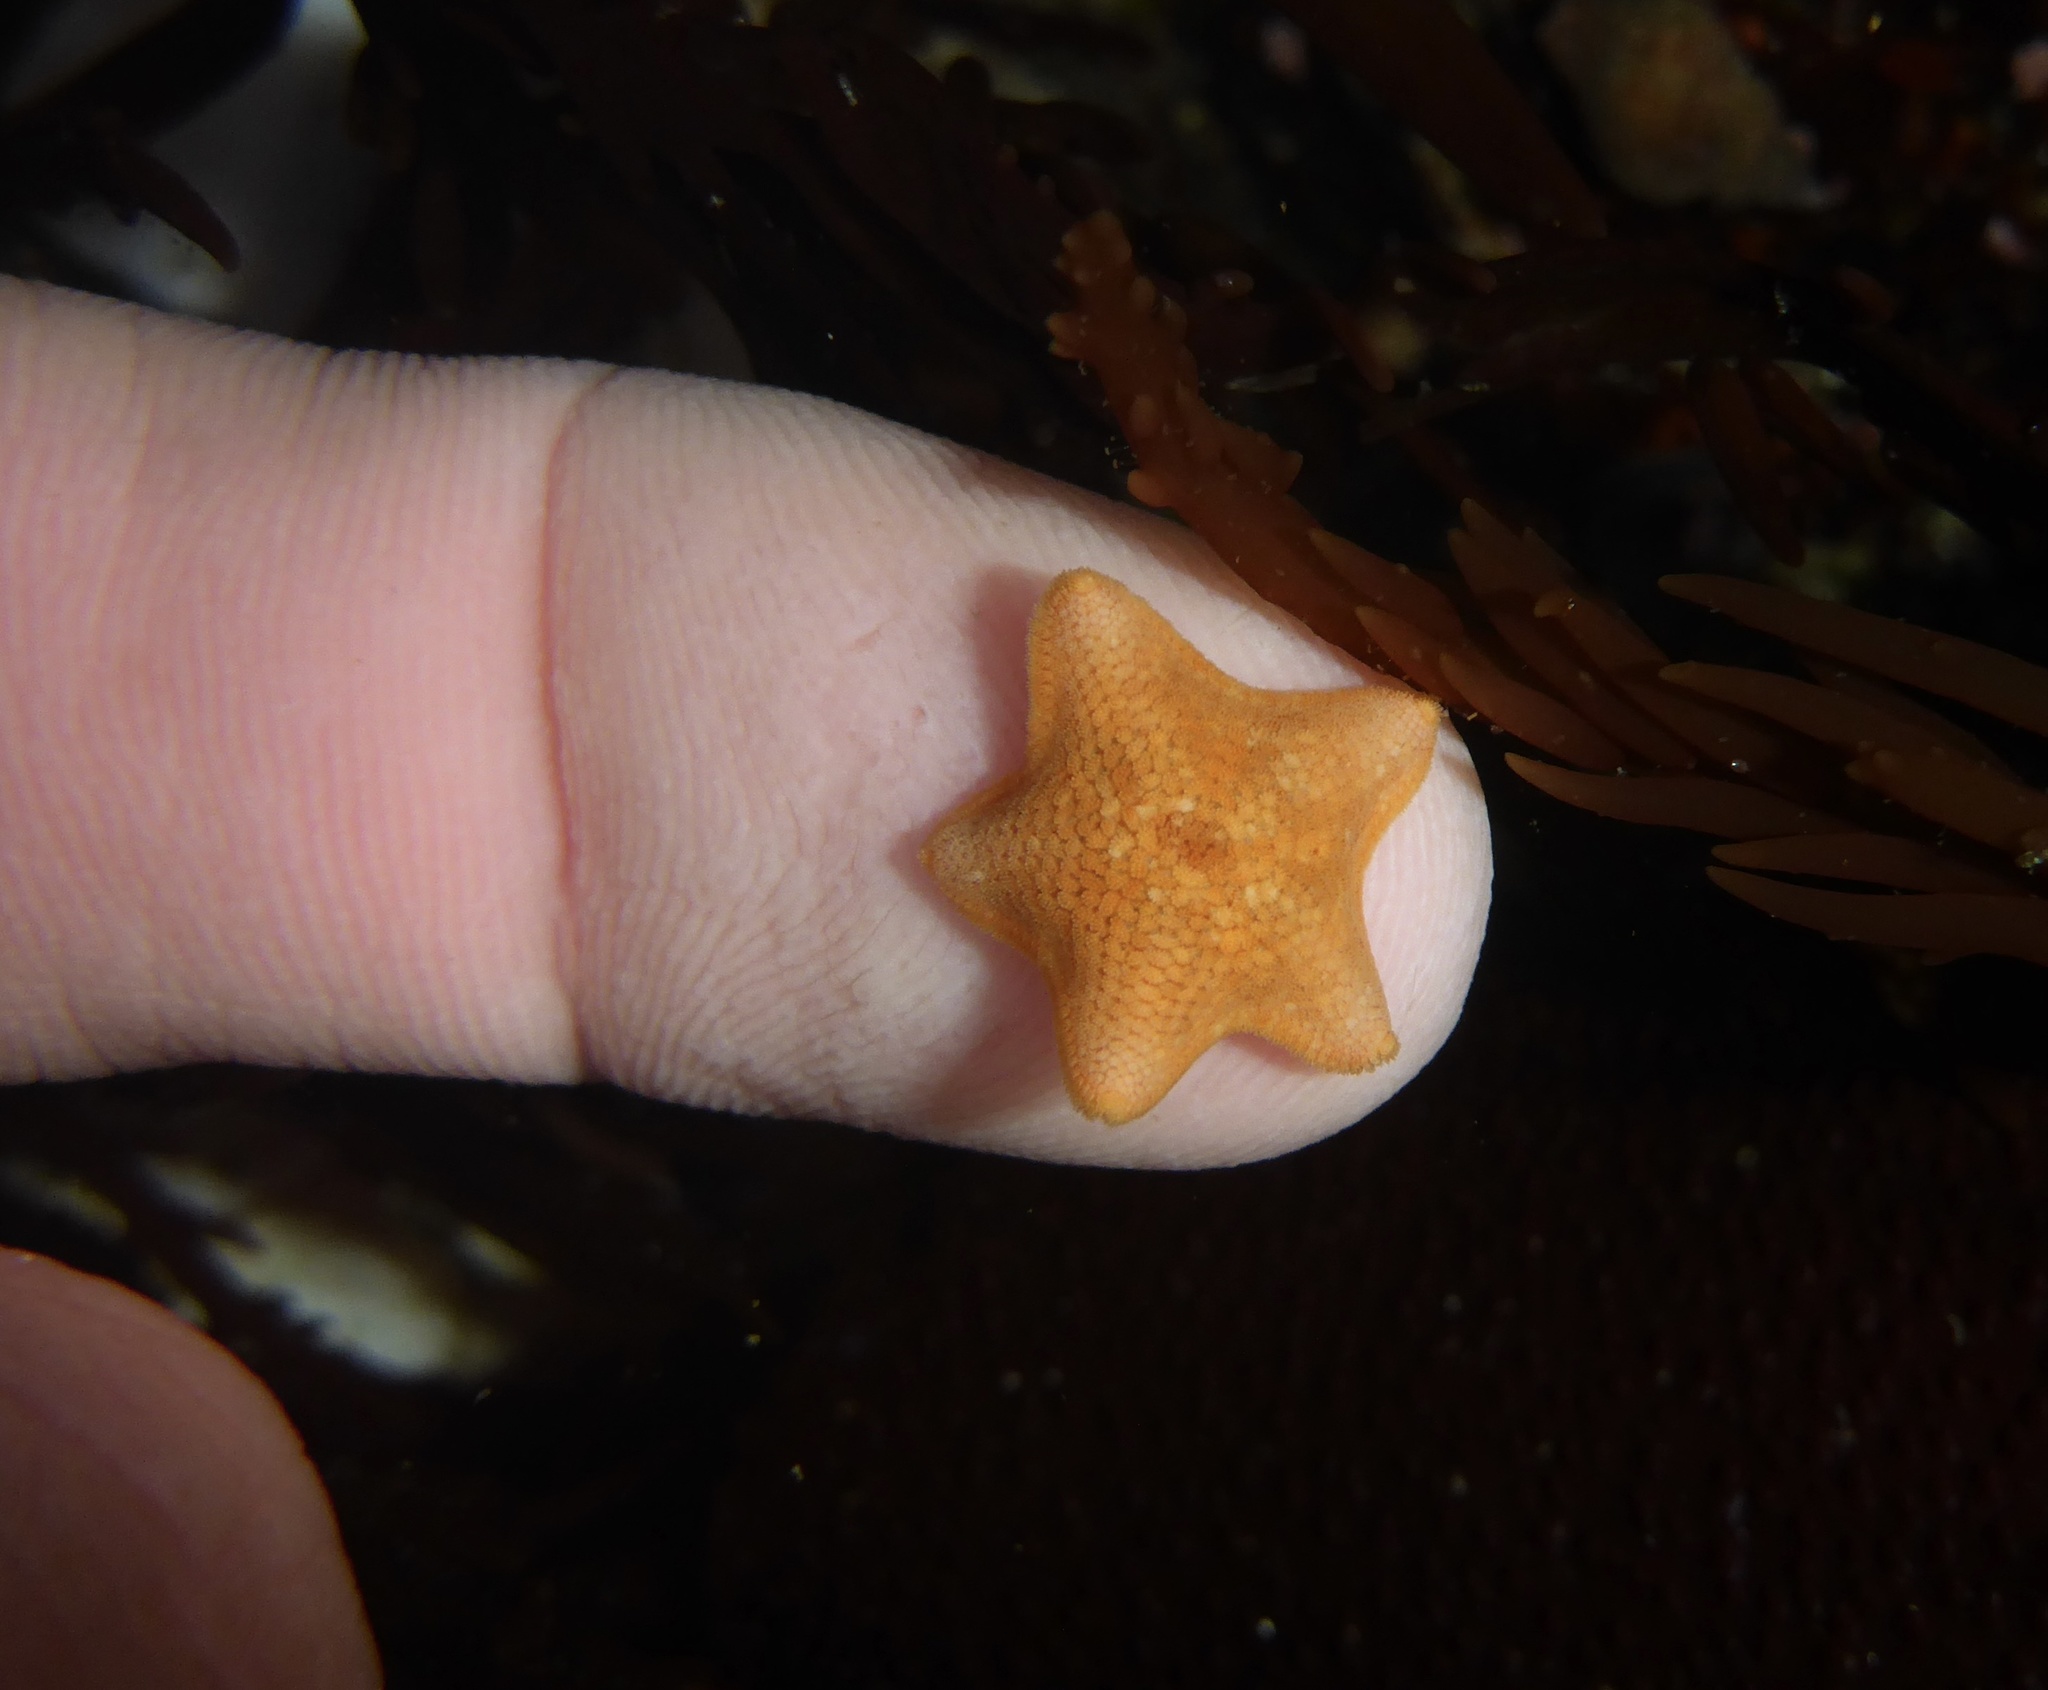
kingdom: Animalia
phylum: Echinodermata
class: Asteroidea
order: Valvatida
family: Asterinidae
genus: Patiria
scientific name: Patiria miniata
